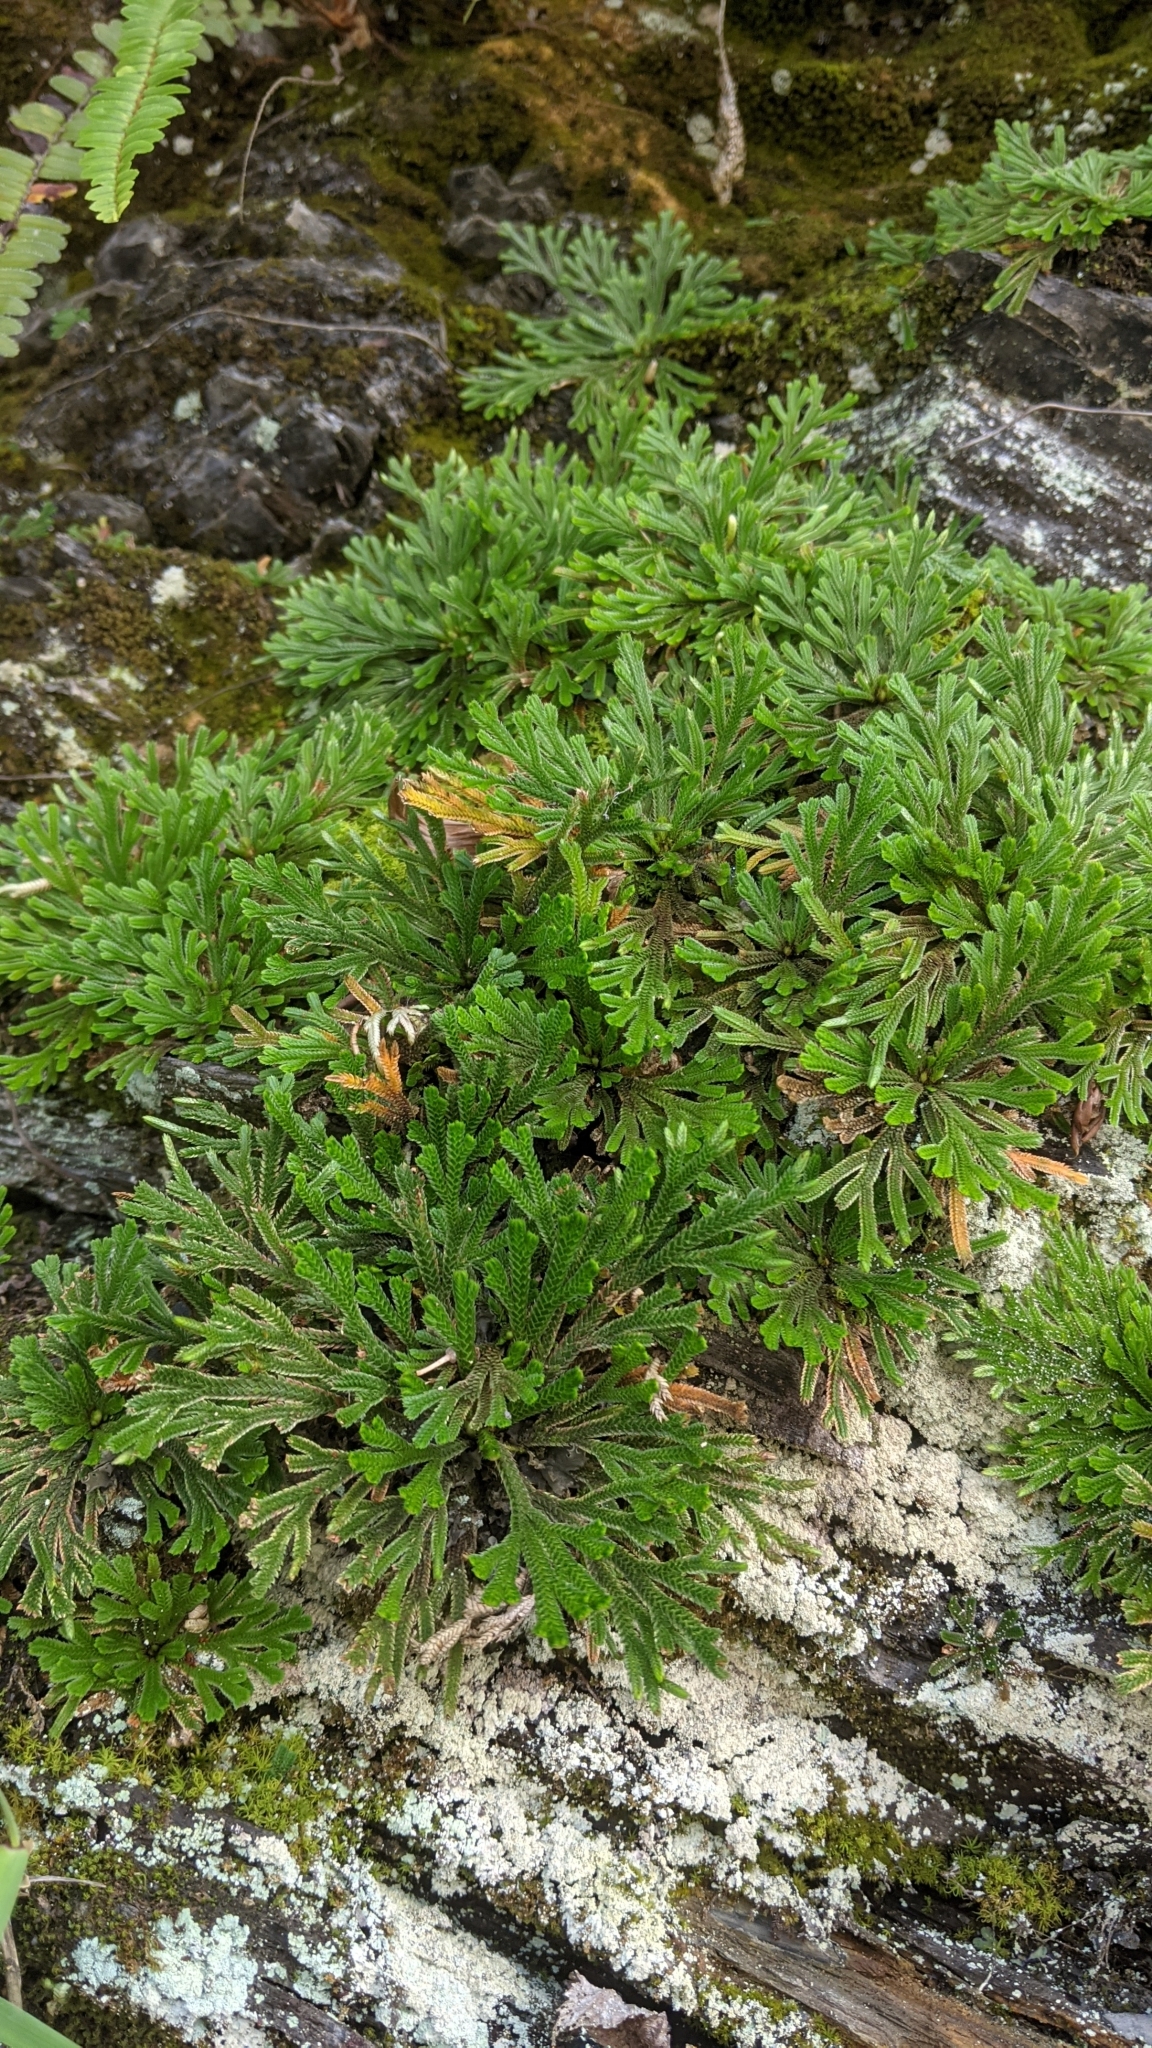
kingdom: Plantae
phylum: Tracheophyta
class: Lycopodiopsida
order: Selaginellales
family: Selaginellaceae
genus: Selaginella
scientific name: Selaginella tamariscina
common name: Little-club-moss
